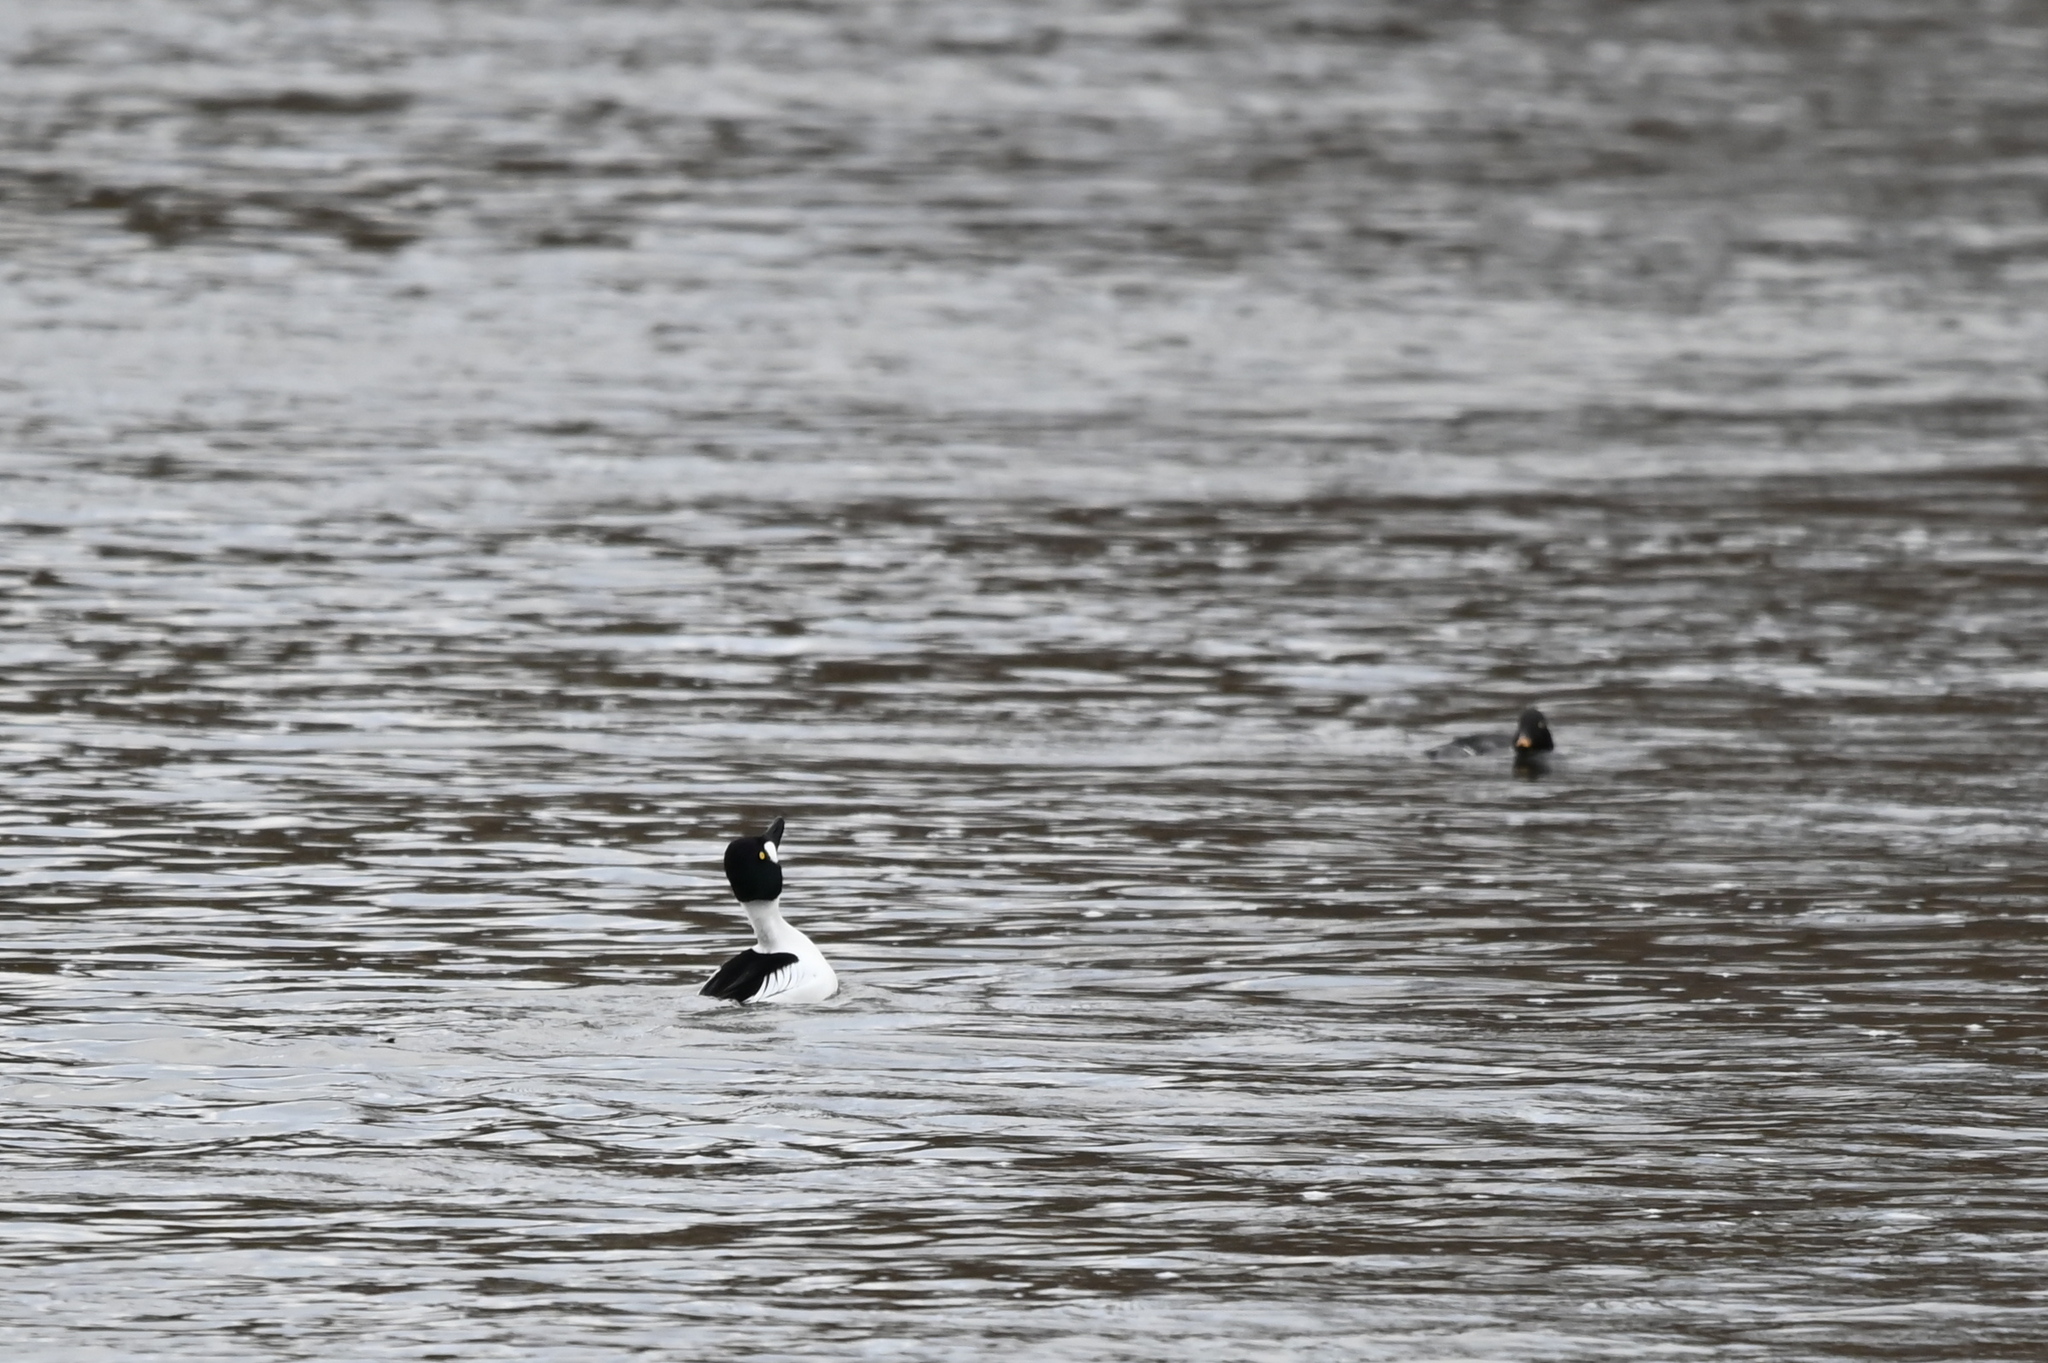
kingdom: Animalia
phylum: Chordata
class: Aves
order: Anseriformes
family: Anatidae
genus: Bucephala
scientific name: Bucephala clangula
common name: Common goldeneye
